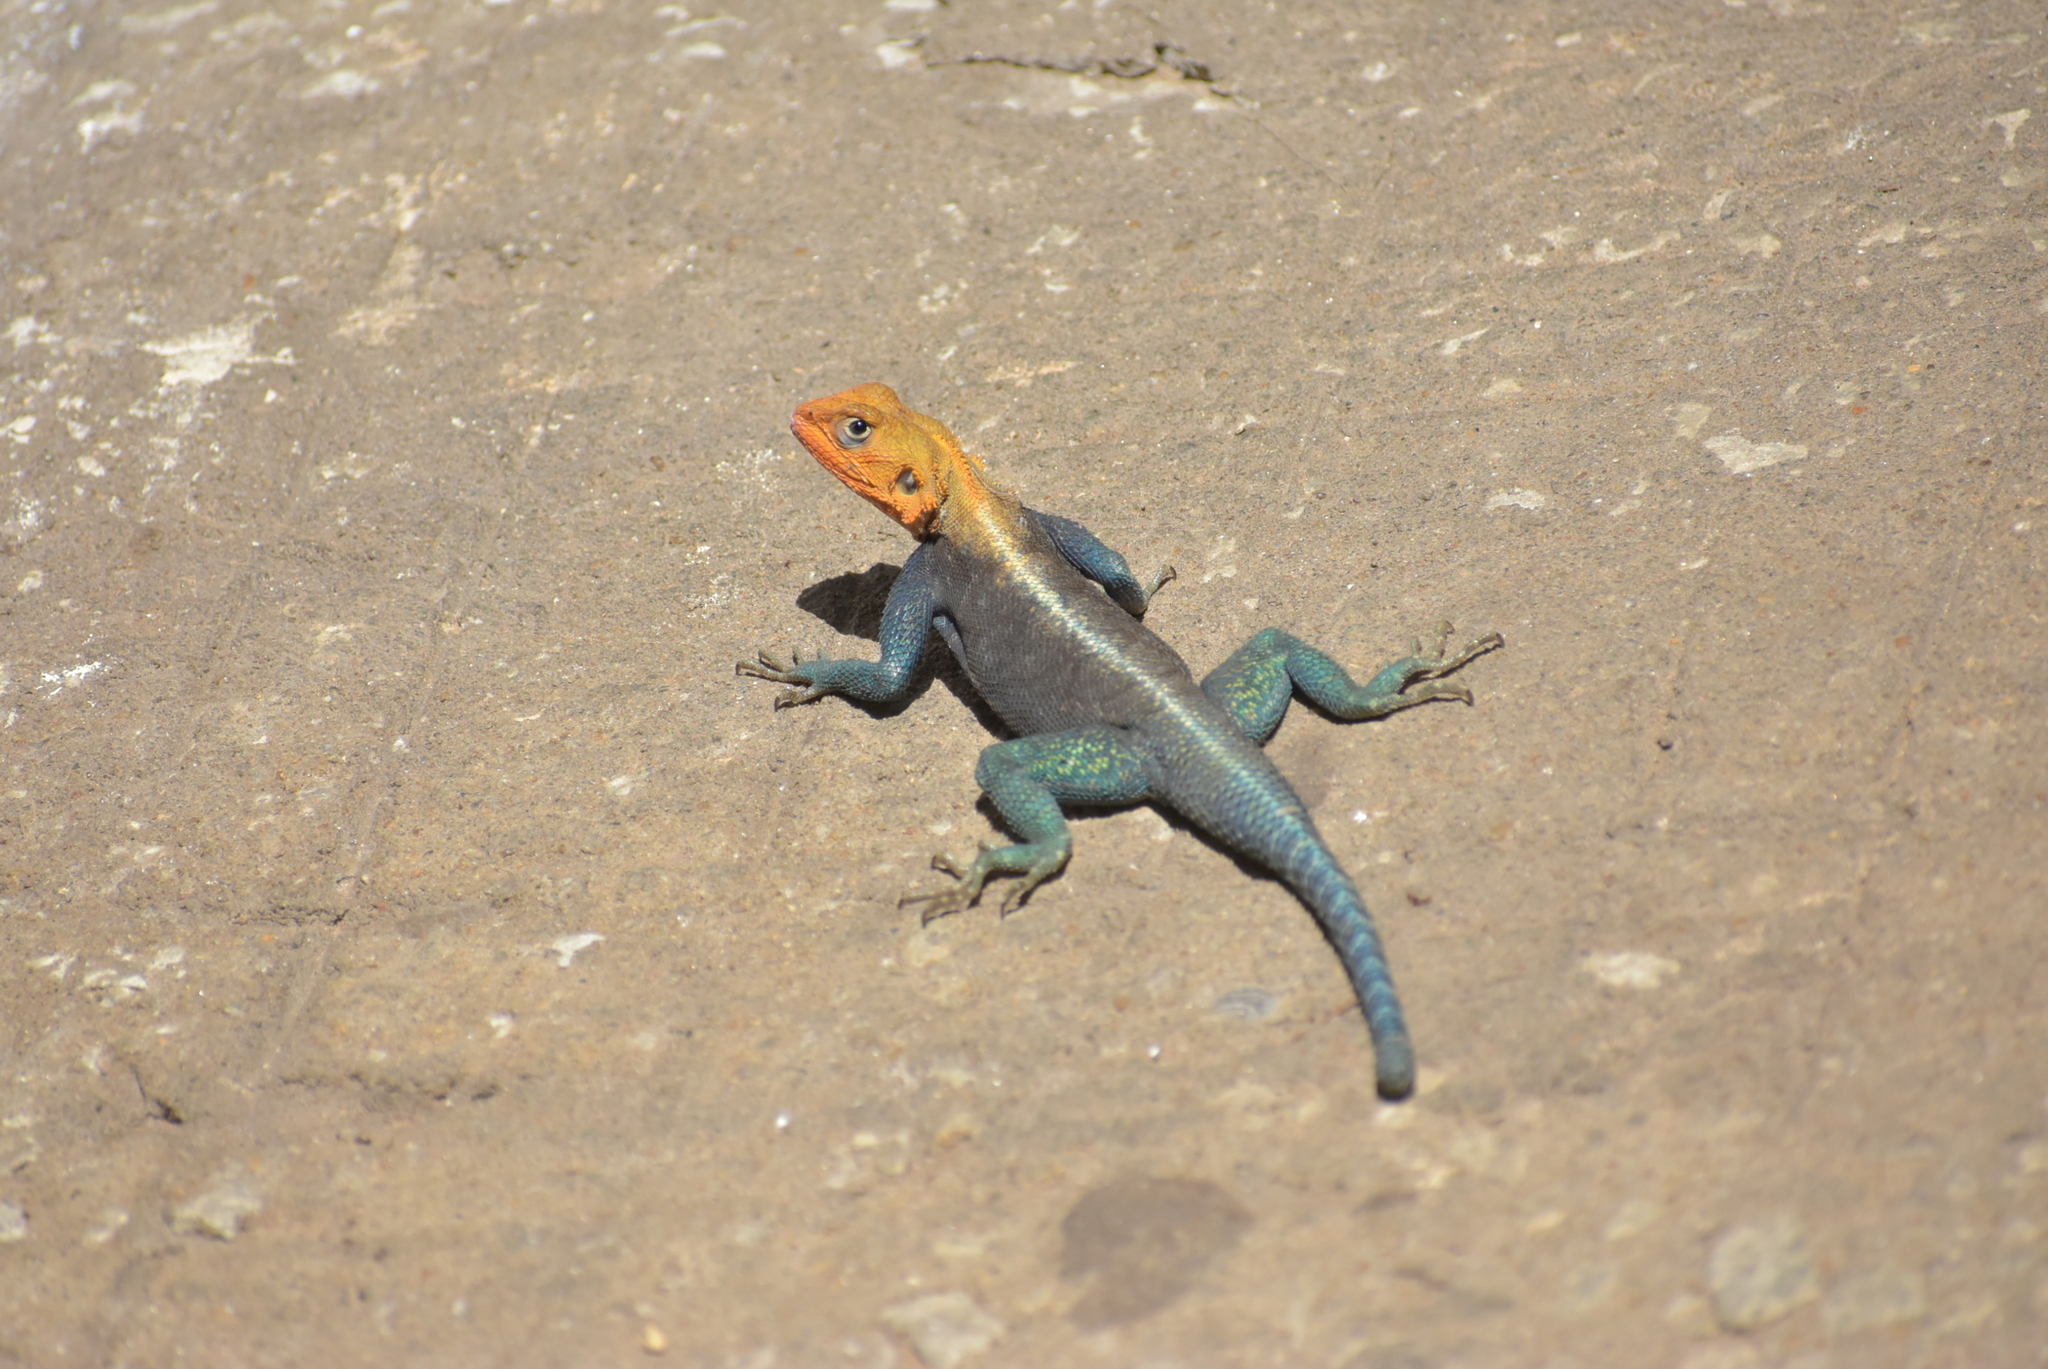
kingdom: Animalia
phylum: Chordata
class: Squamata
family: Agamidae
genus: Agama
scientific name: Agama lionotus
